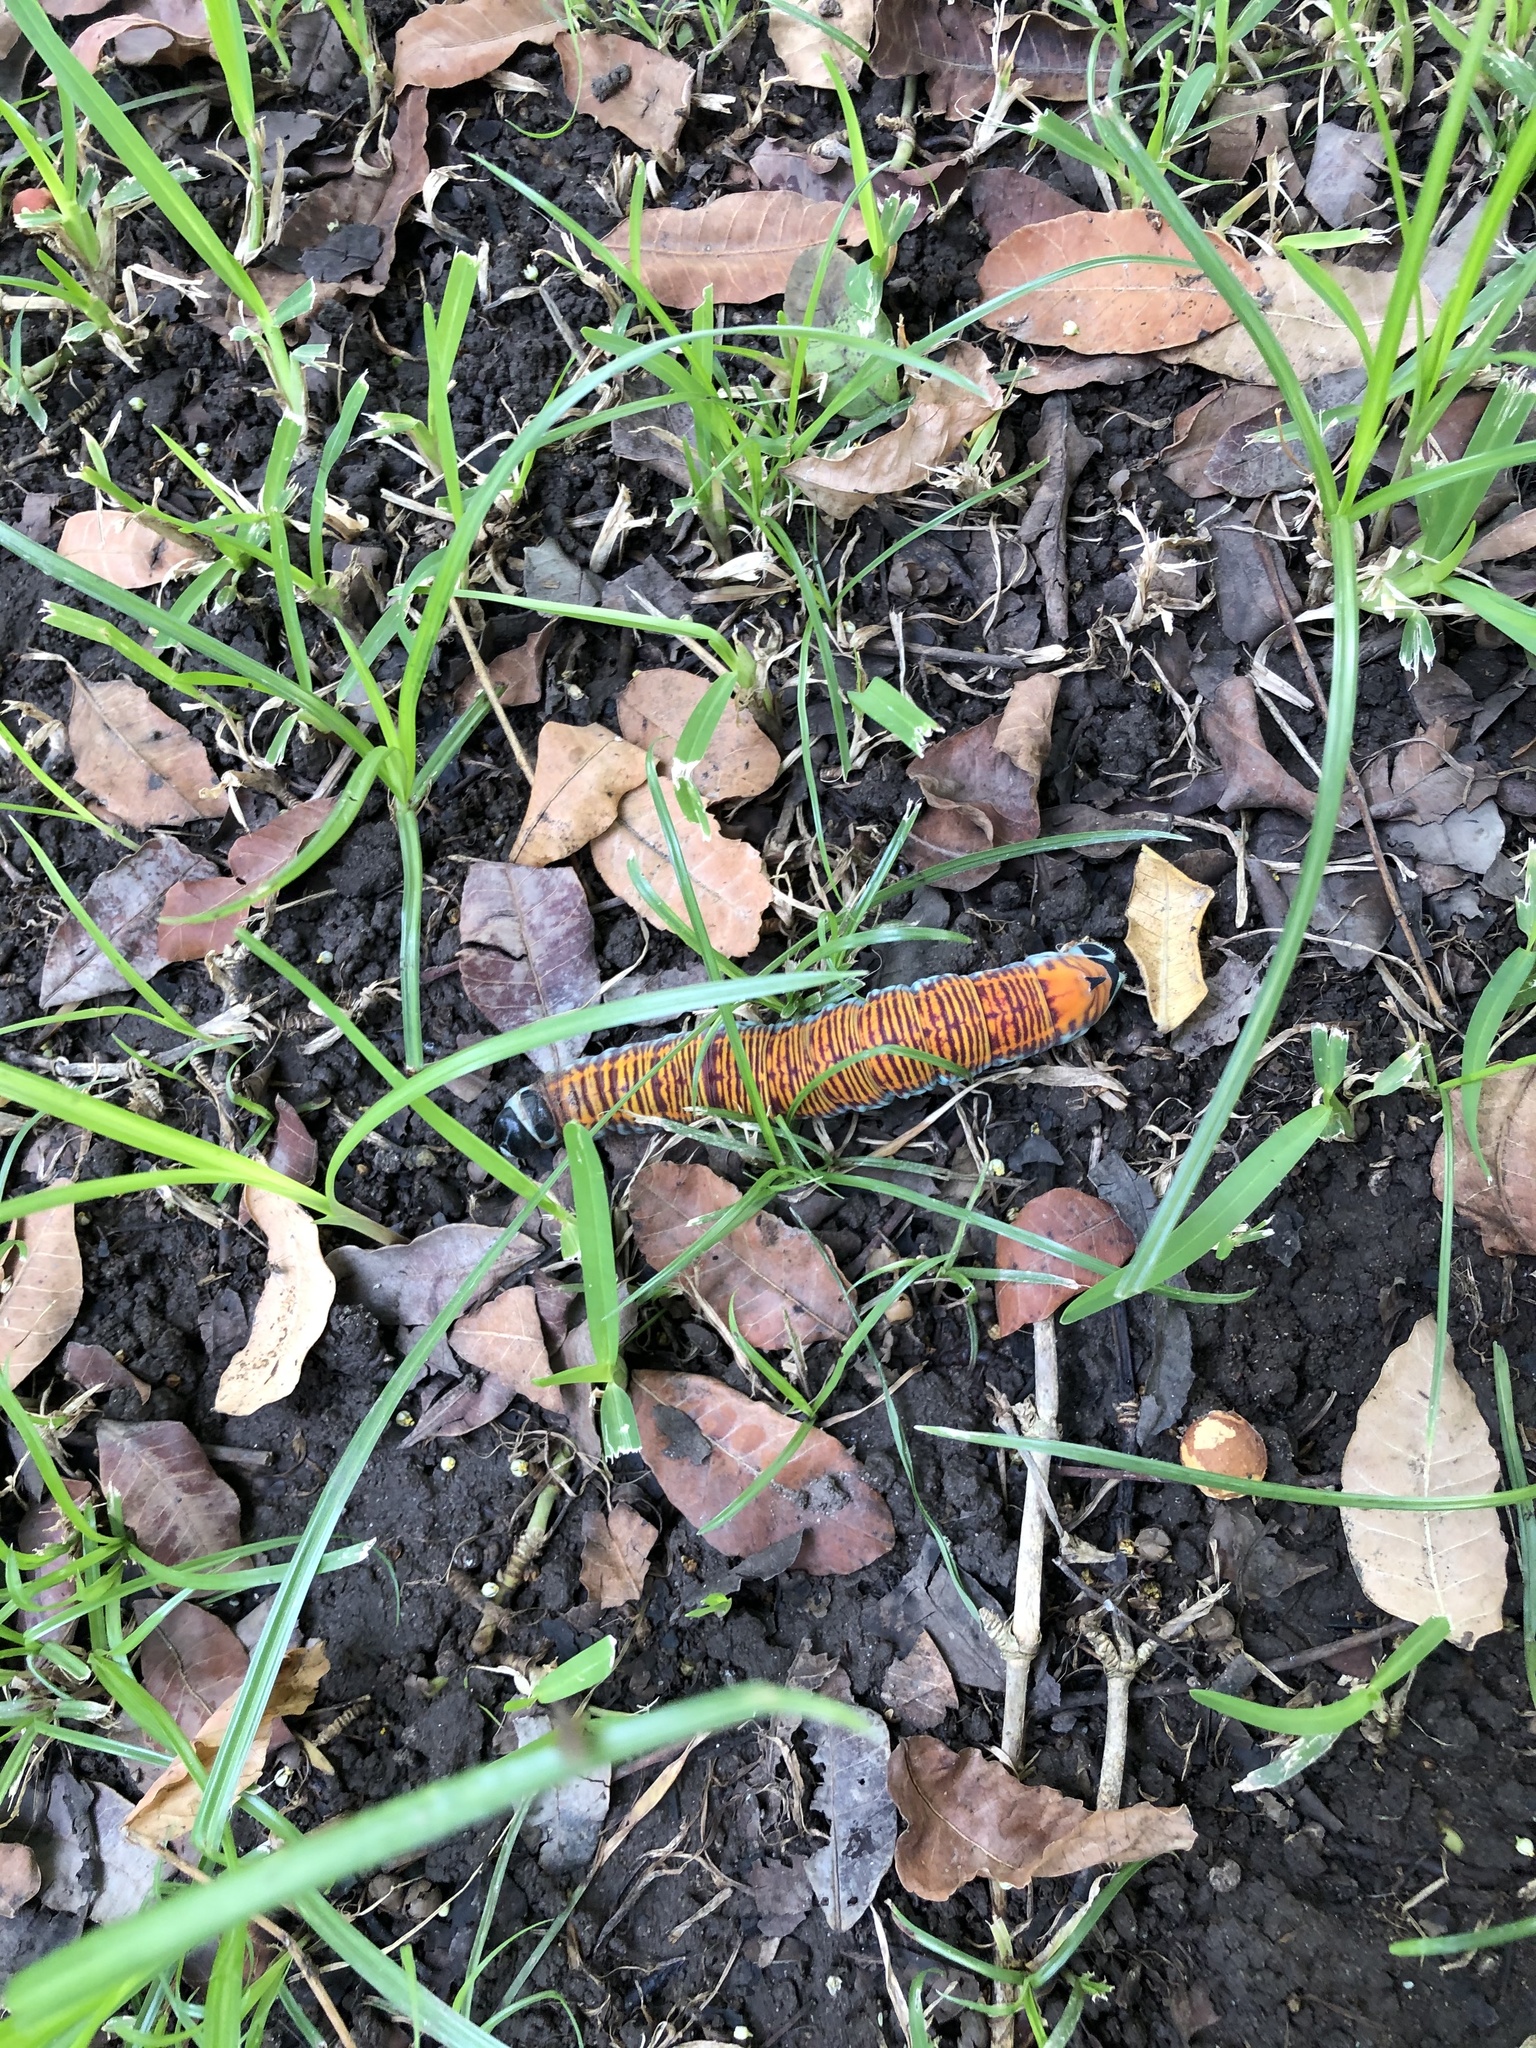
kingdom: Animalia
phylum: Arthropoda
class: Insecta
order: Lepidoptera
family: Sphingidae
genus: Pachylia
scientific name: Pachylia ficus
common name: Fig sphinx
